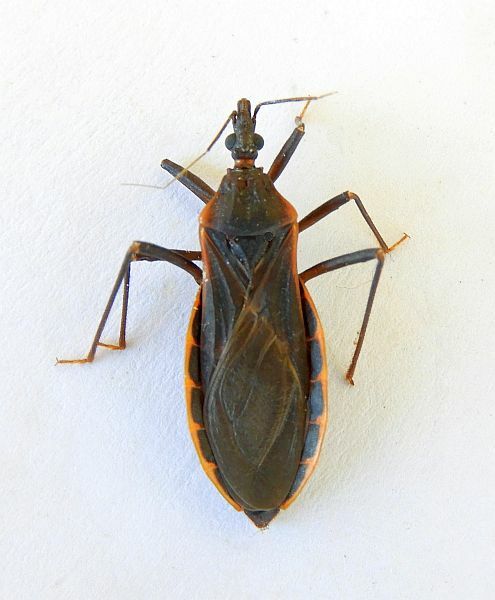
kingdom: Animalia
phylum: Arthropoda
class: Insecta
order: Hemiptera
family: Reduviidae
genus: Triatoma
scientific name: Triatoma rubida
